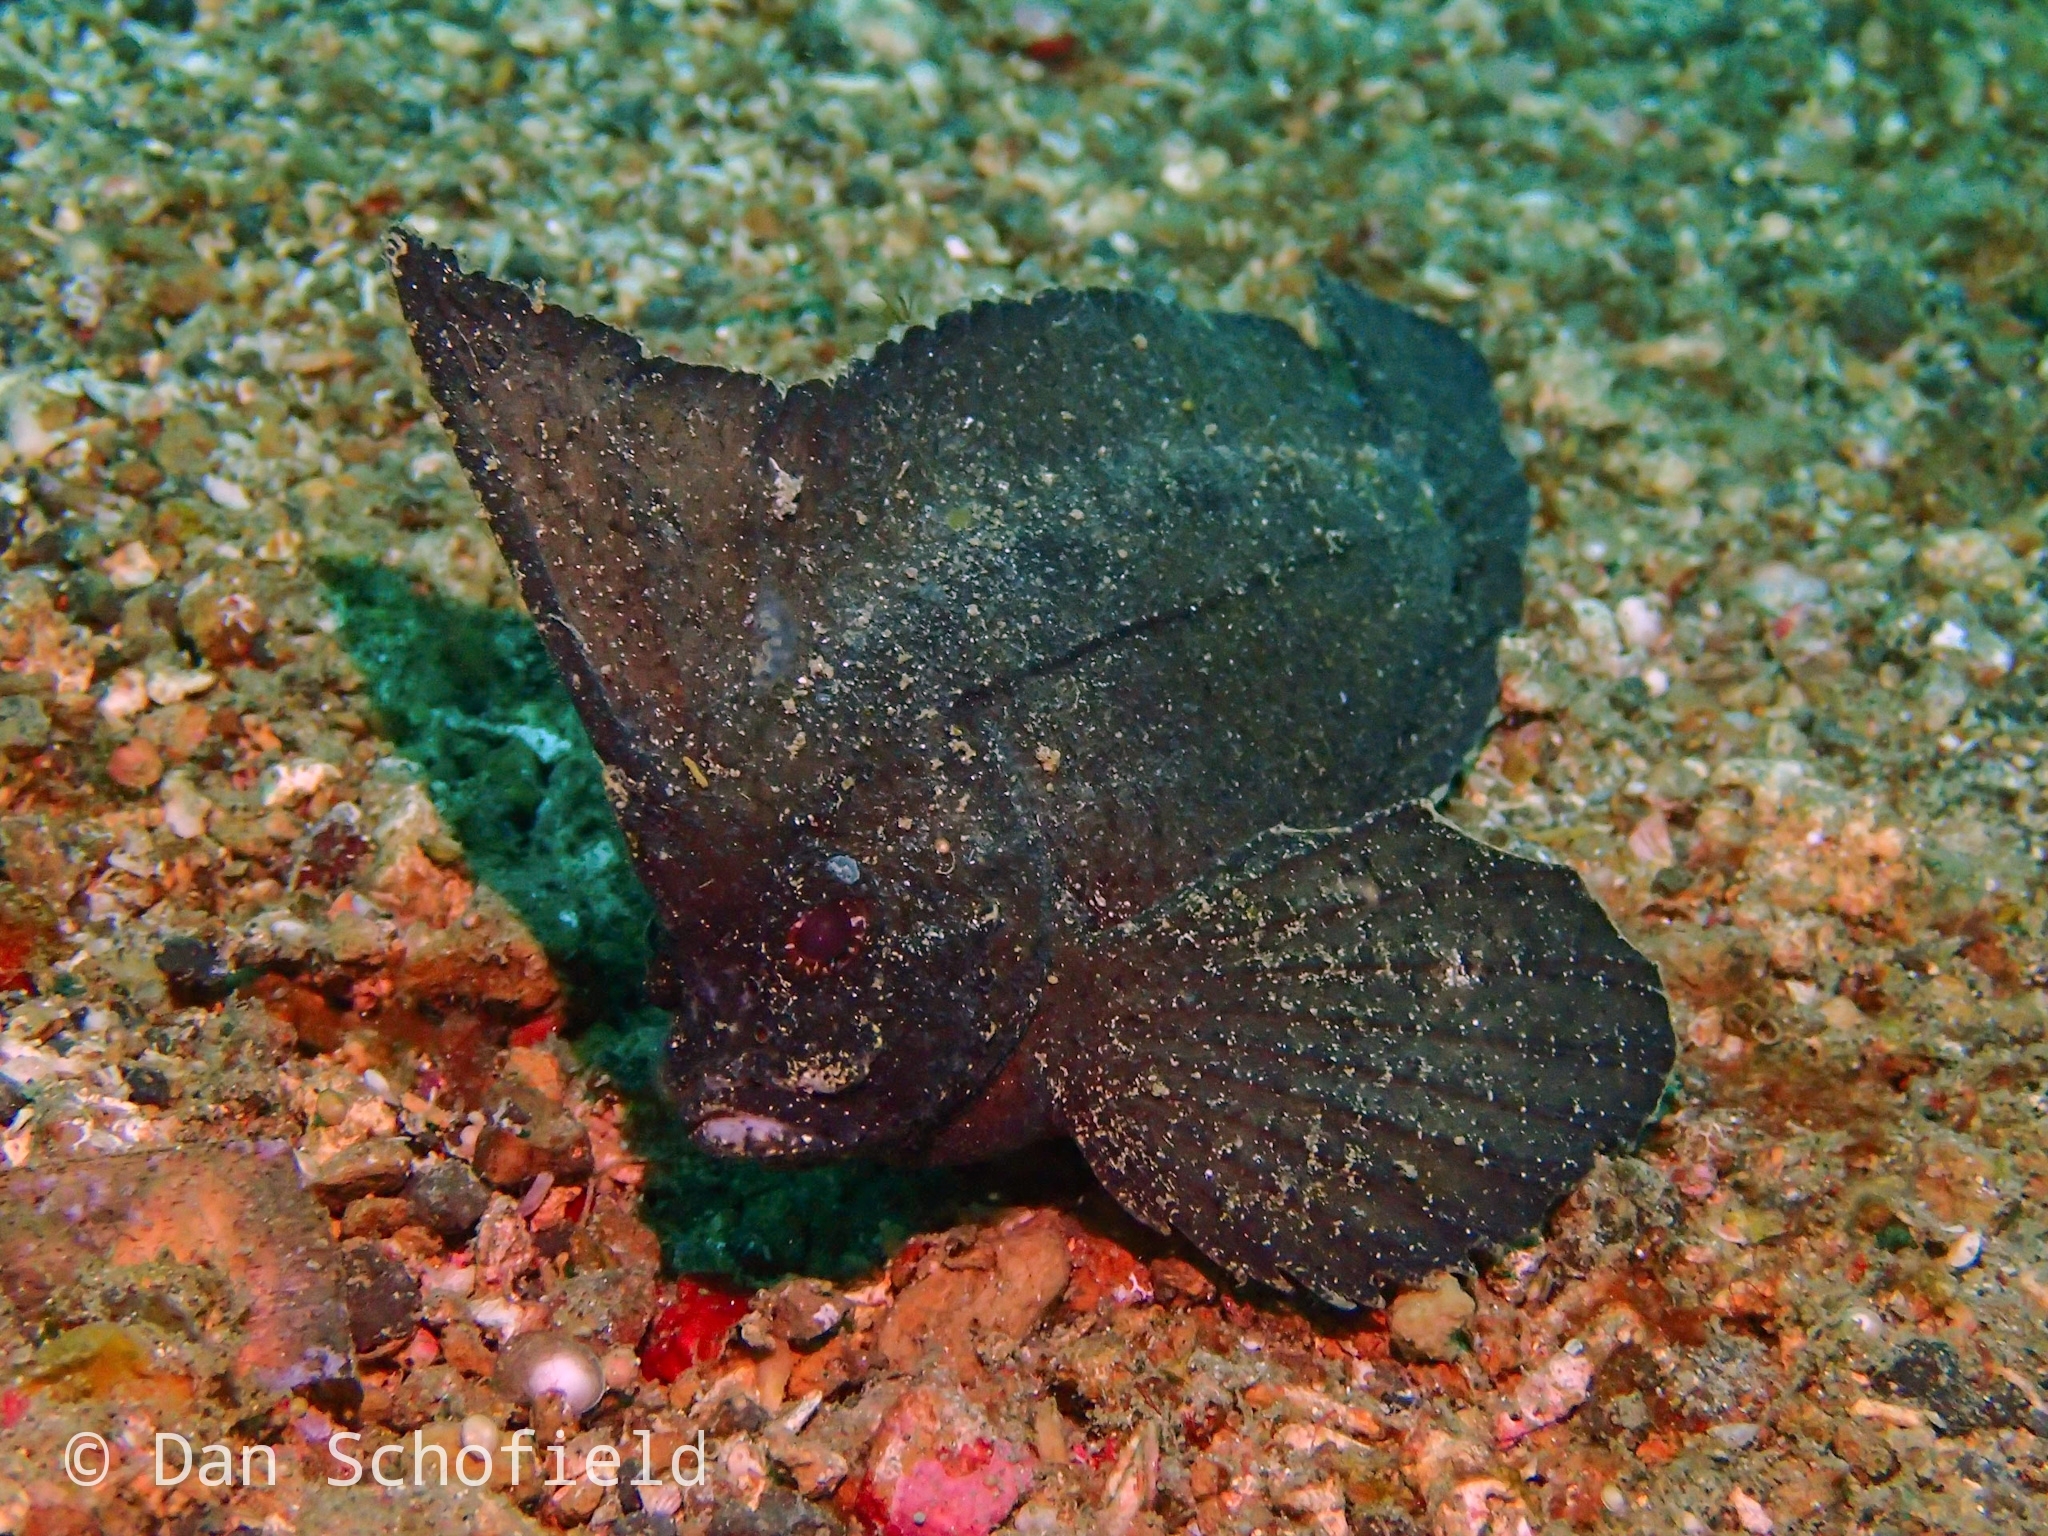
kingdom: Animalia
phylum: Chordata
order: Scorpaeniformes
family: Tetrarogidae
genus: Ablabys
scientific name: Ablabys taenianotus
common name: Cockatoo waspfish
